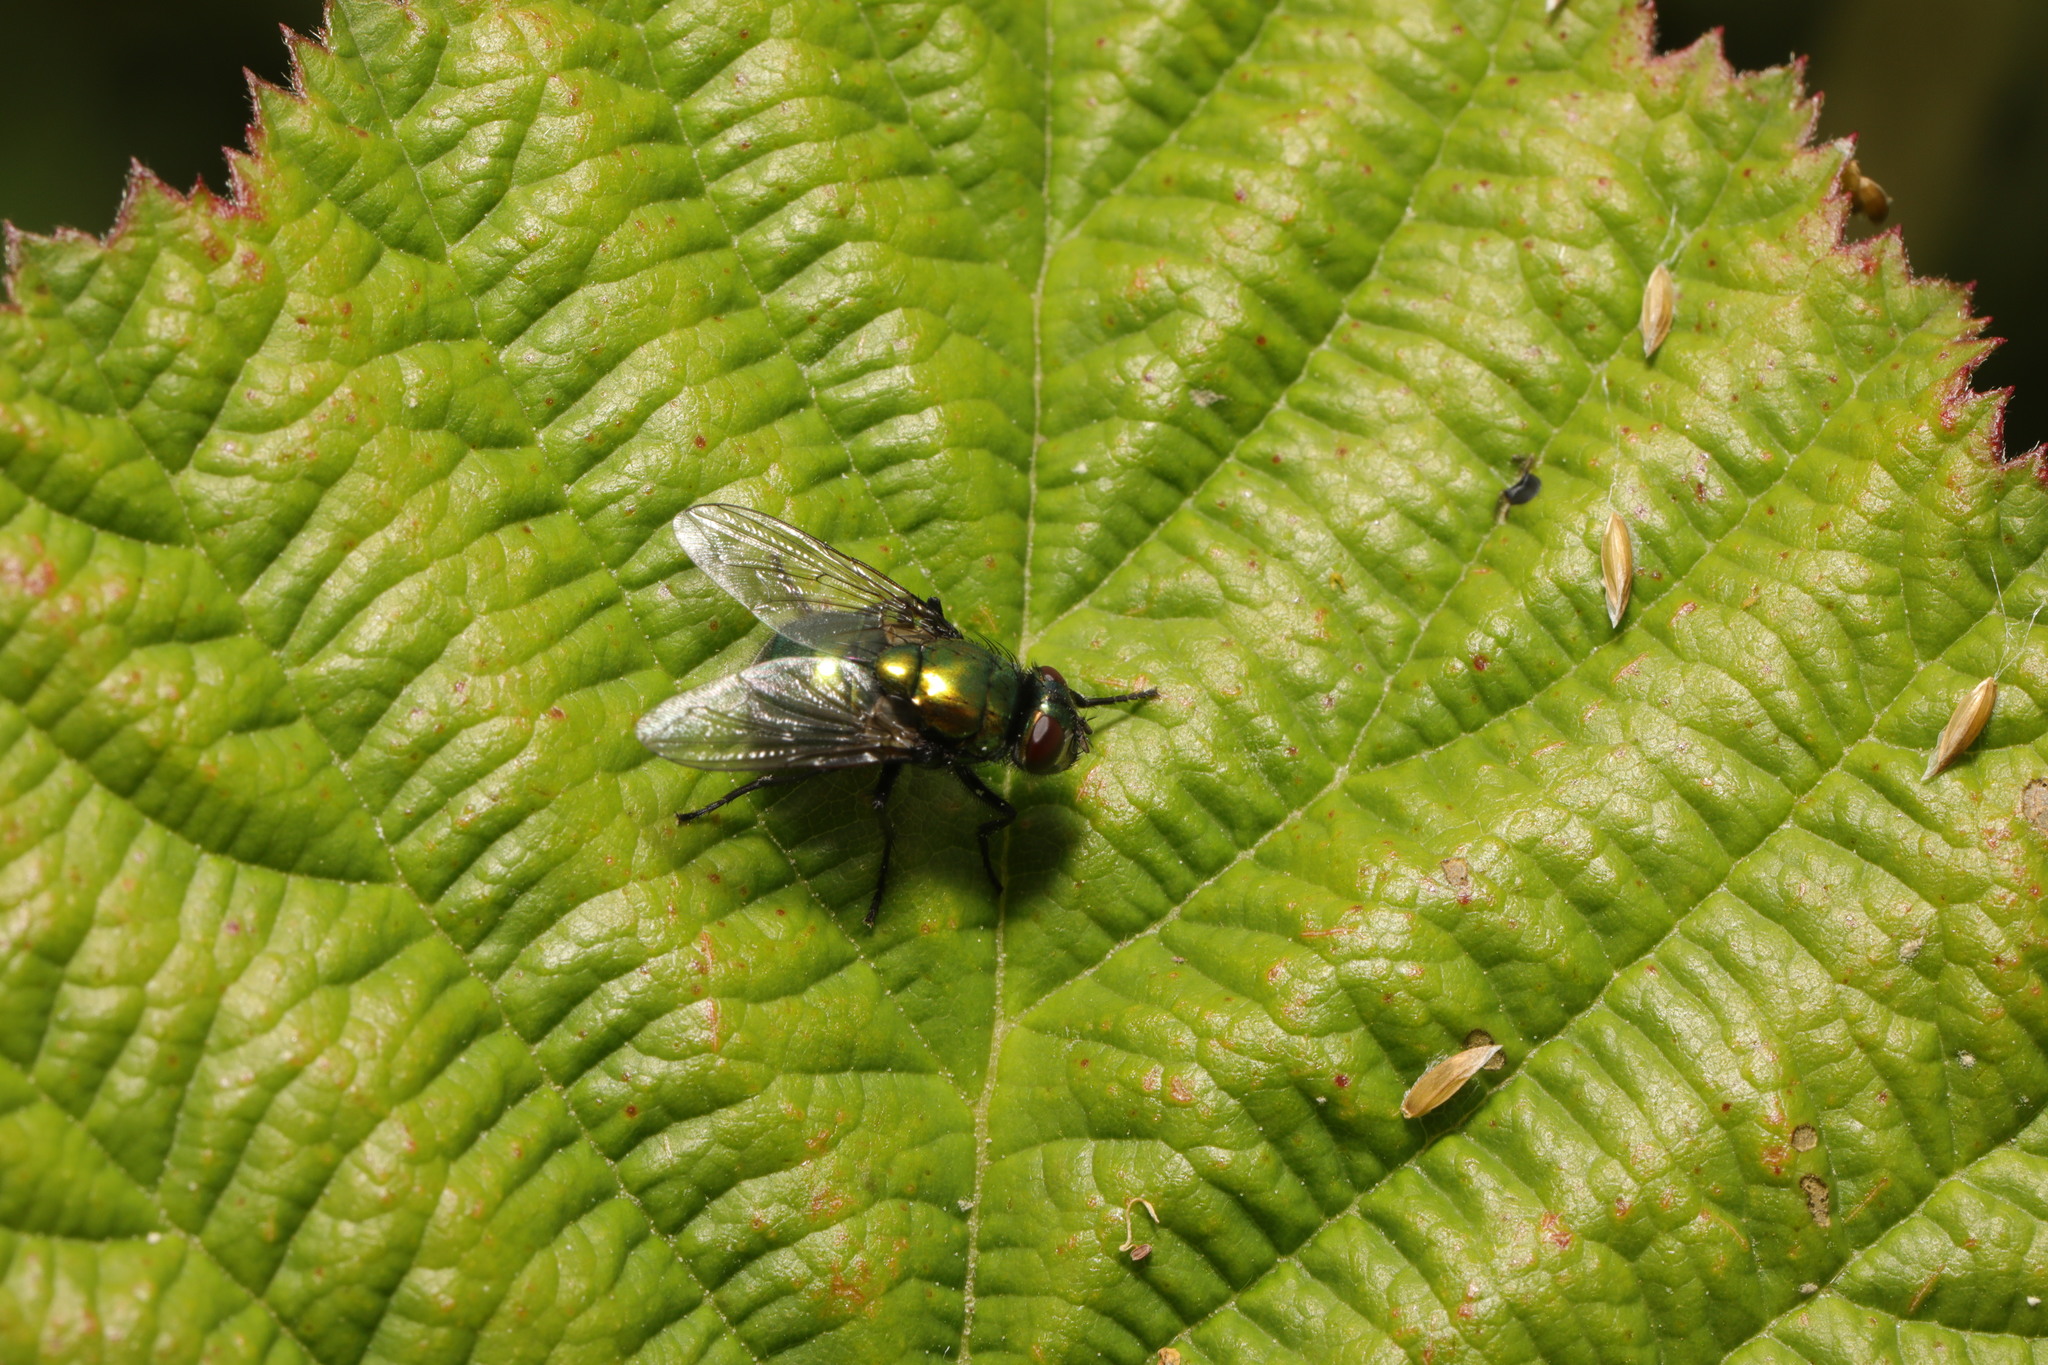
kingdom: Animalia
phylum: Arthropoda
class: Insecta
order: Diptera
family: Muscidae
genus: Neomyia
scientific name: Neomyia cornicina
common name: House fly
